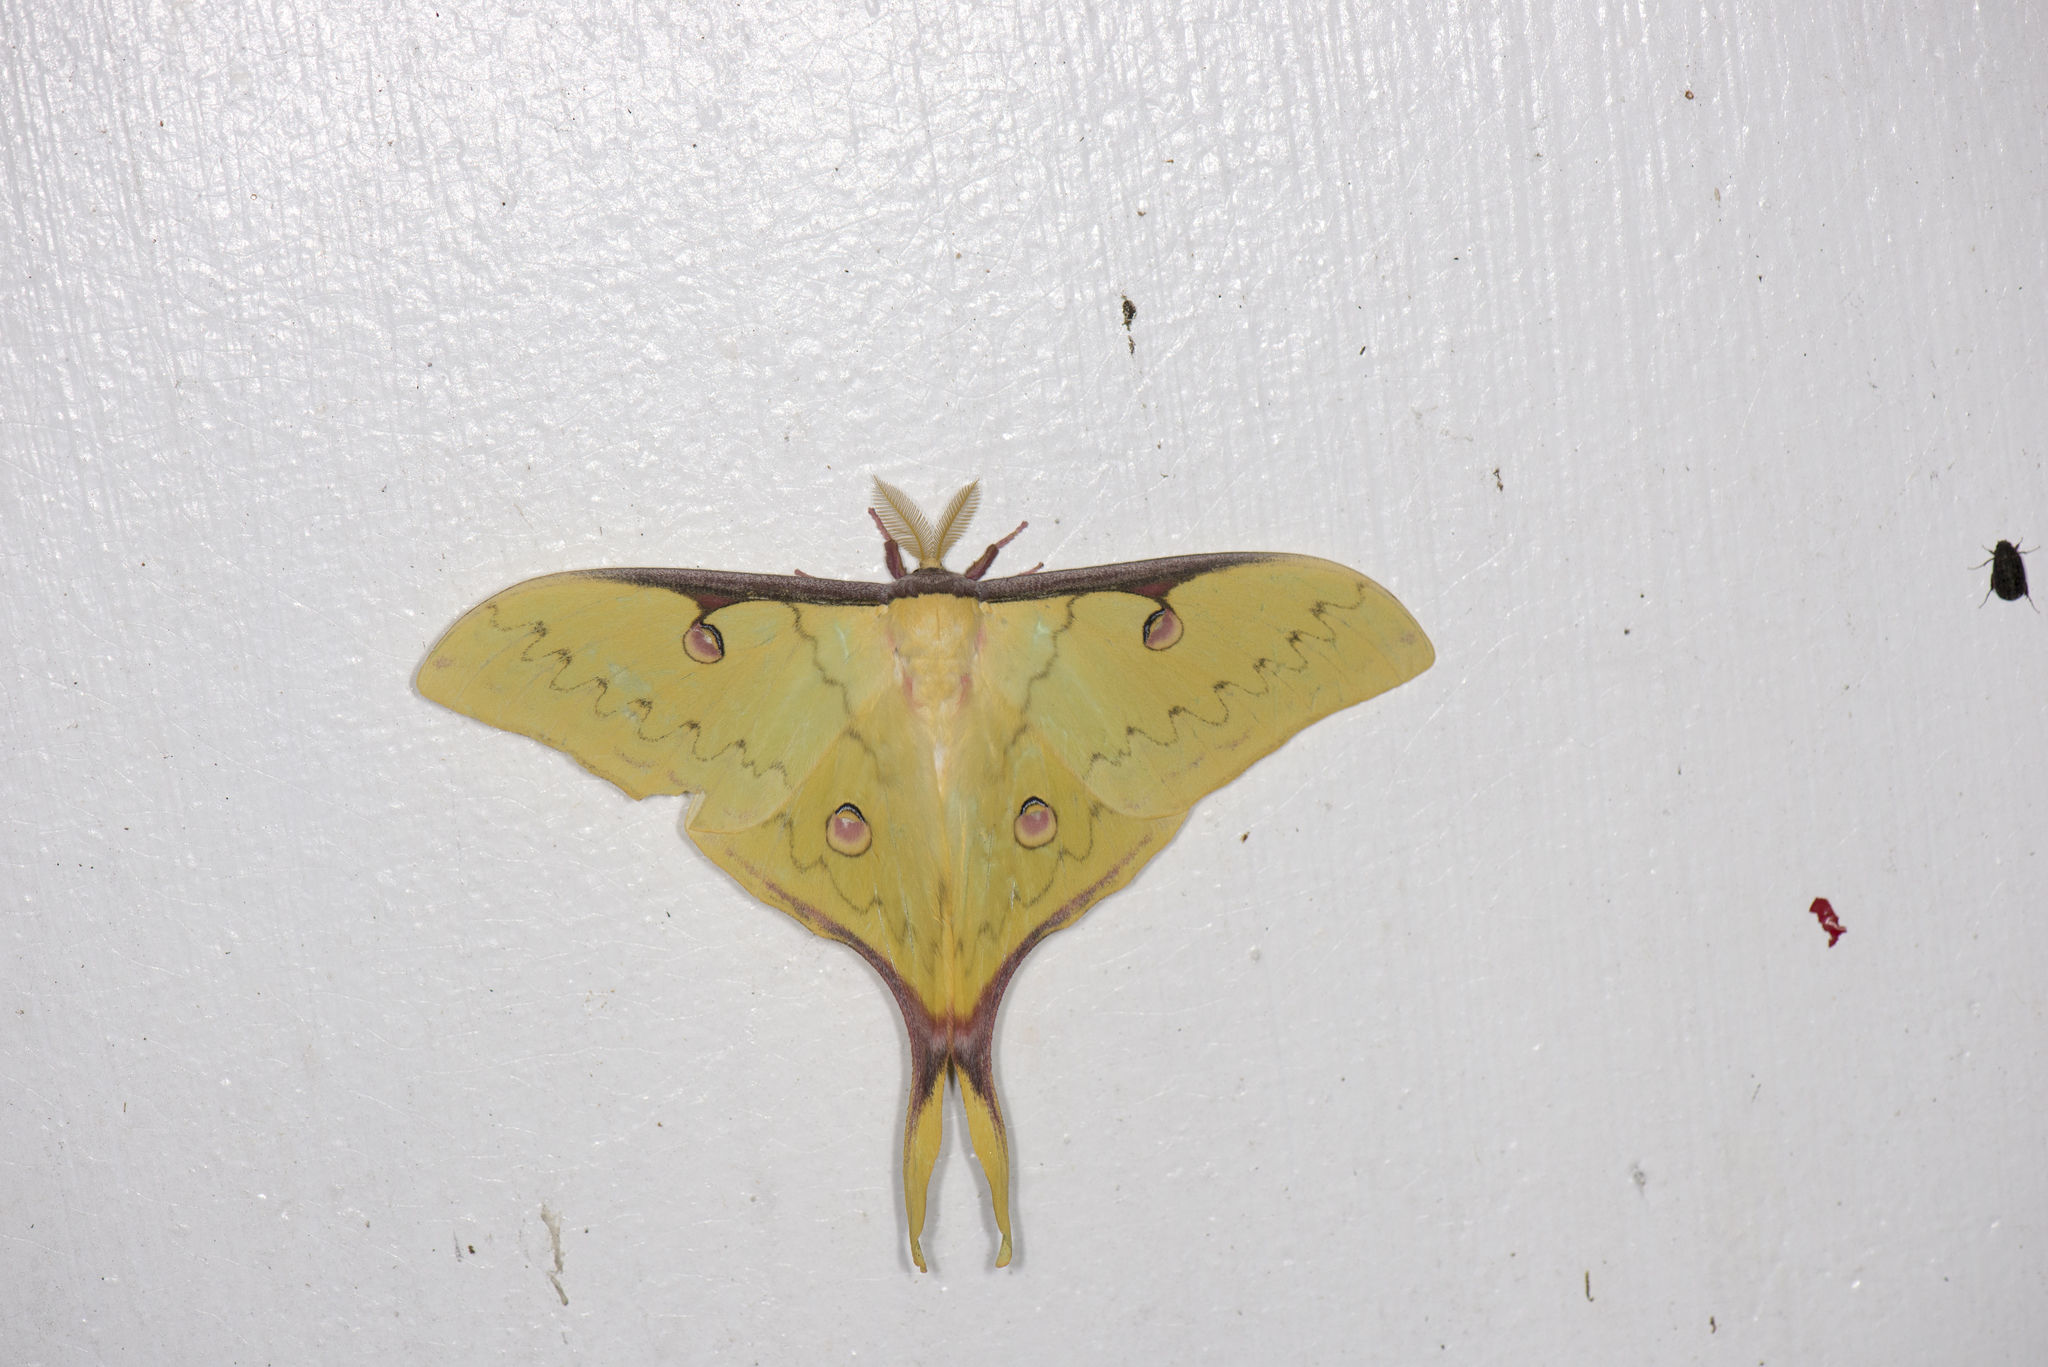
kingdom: Animalia
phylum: Arthropoda
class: Insecta
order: Lepidoptera
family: Saturniidae
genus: Actias
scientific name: Actias sinensis
